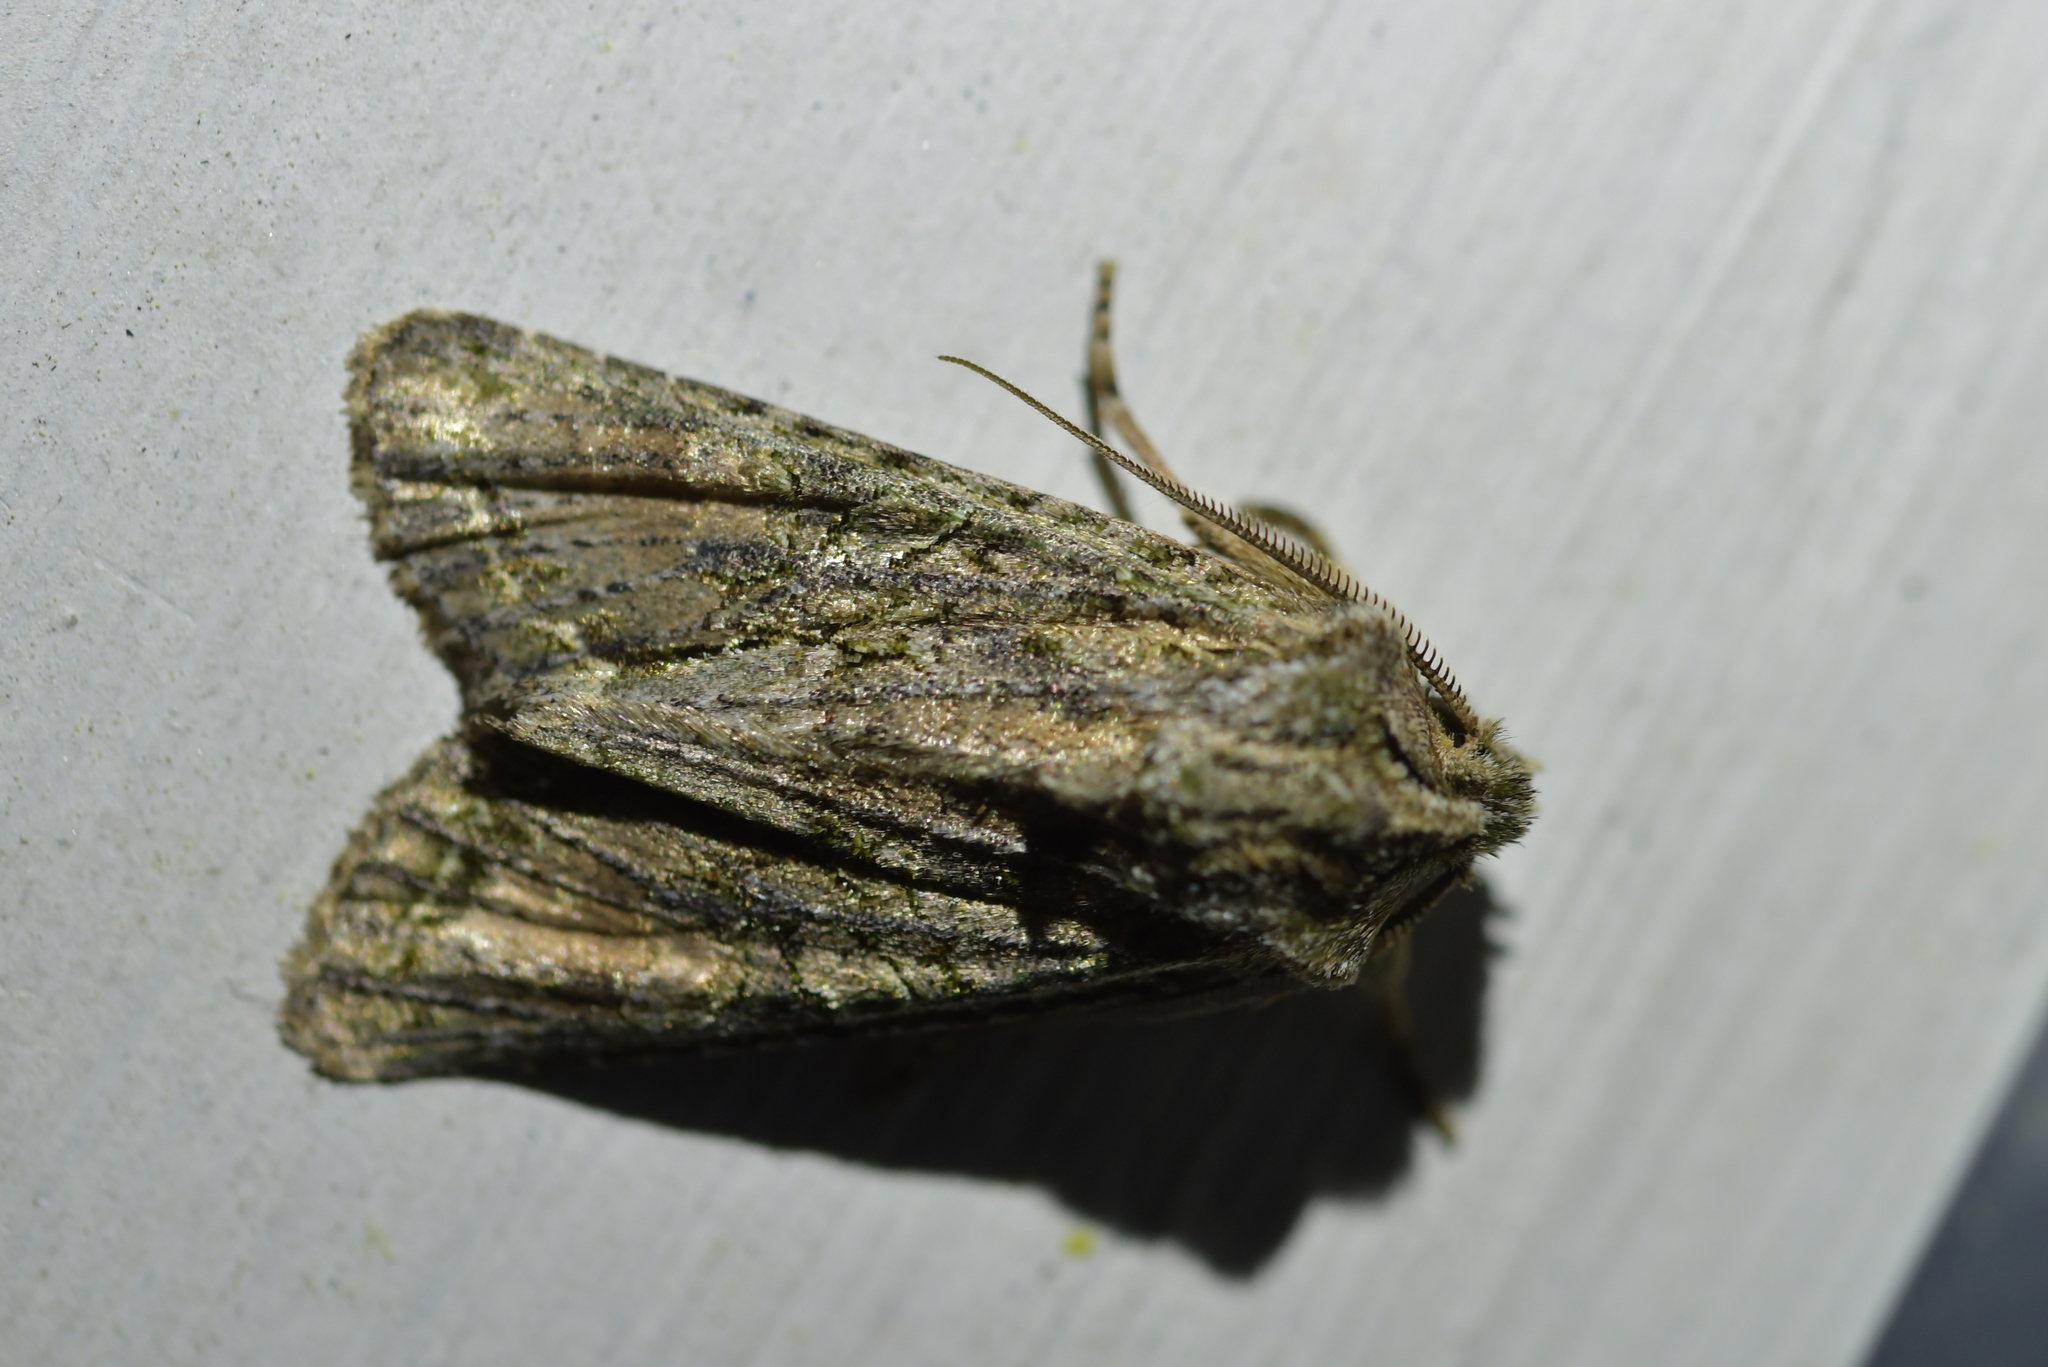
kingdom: Animalia
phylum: Arthropoda
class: Insecta
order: Lepidoptera
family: Noctuidae
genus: Ichneutica
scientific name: Ichneutica mutans
